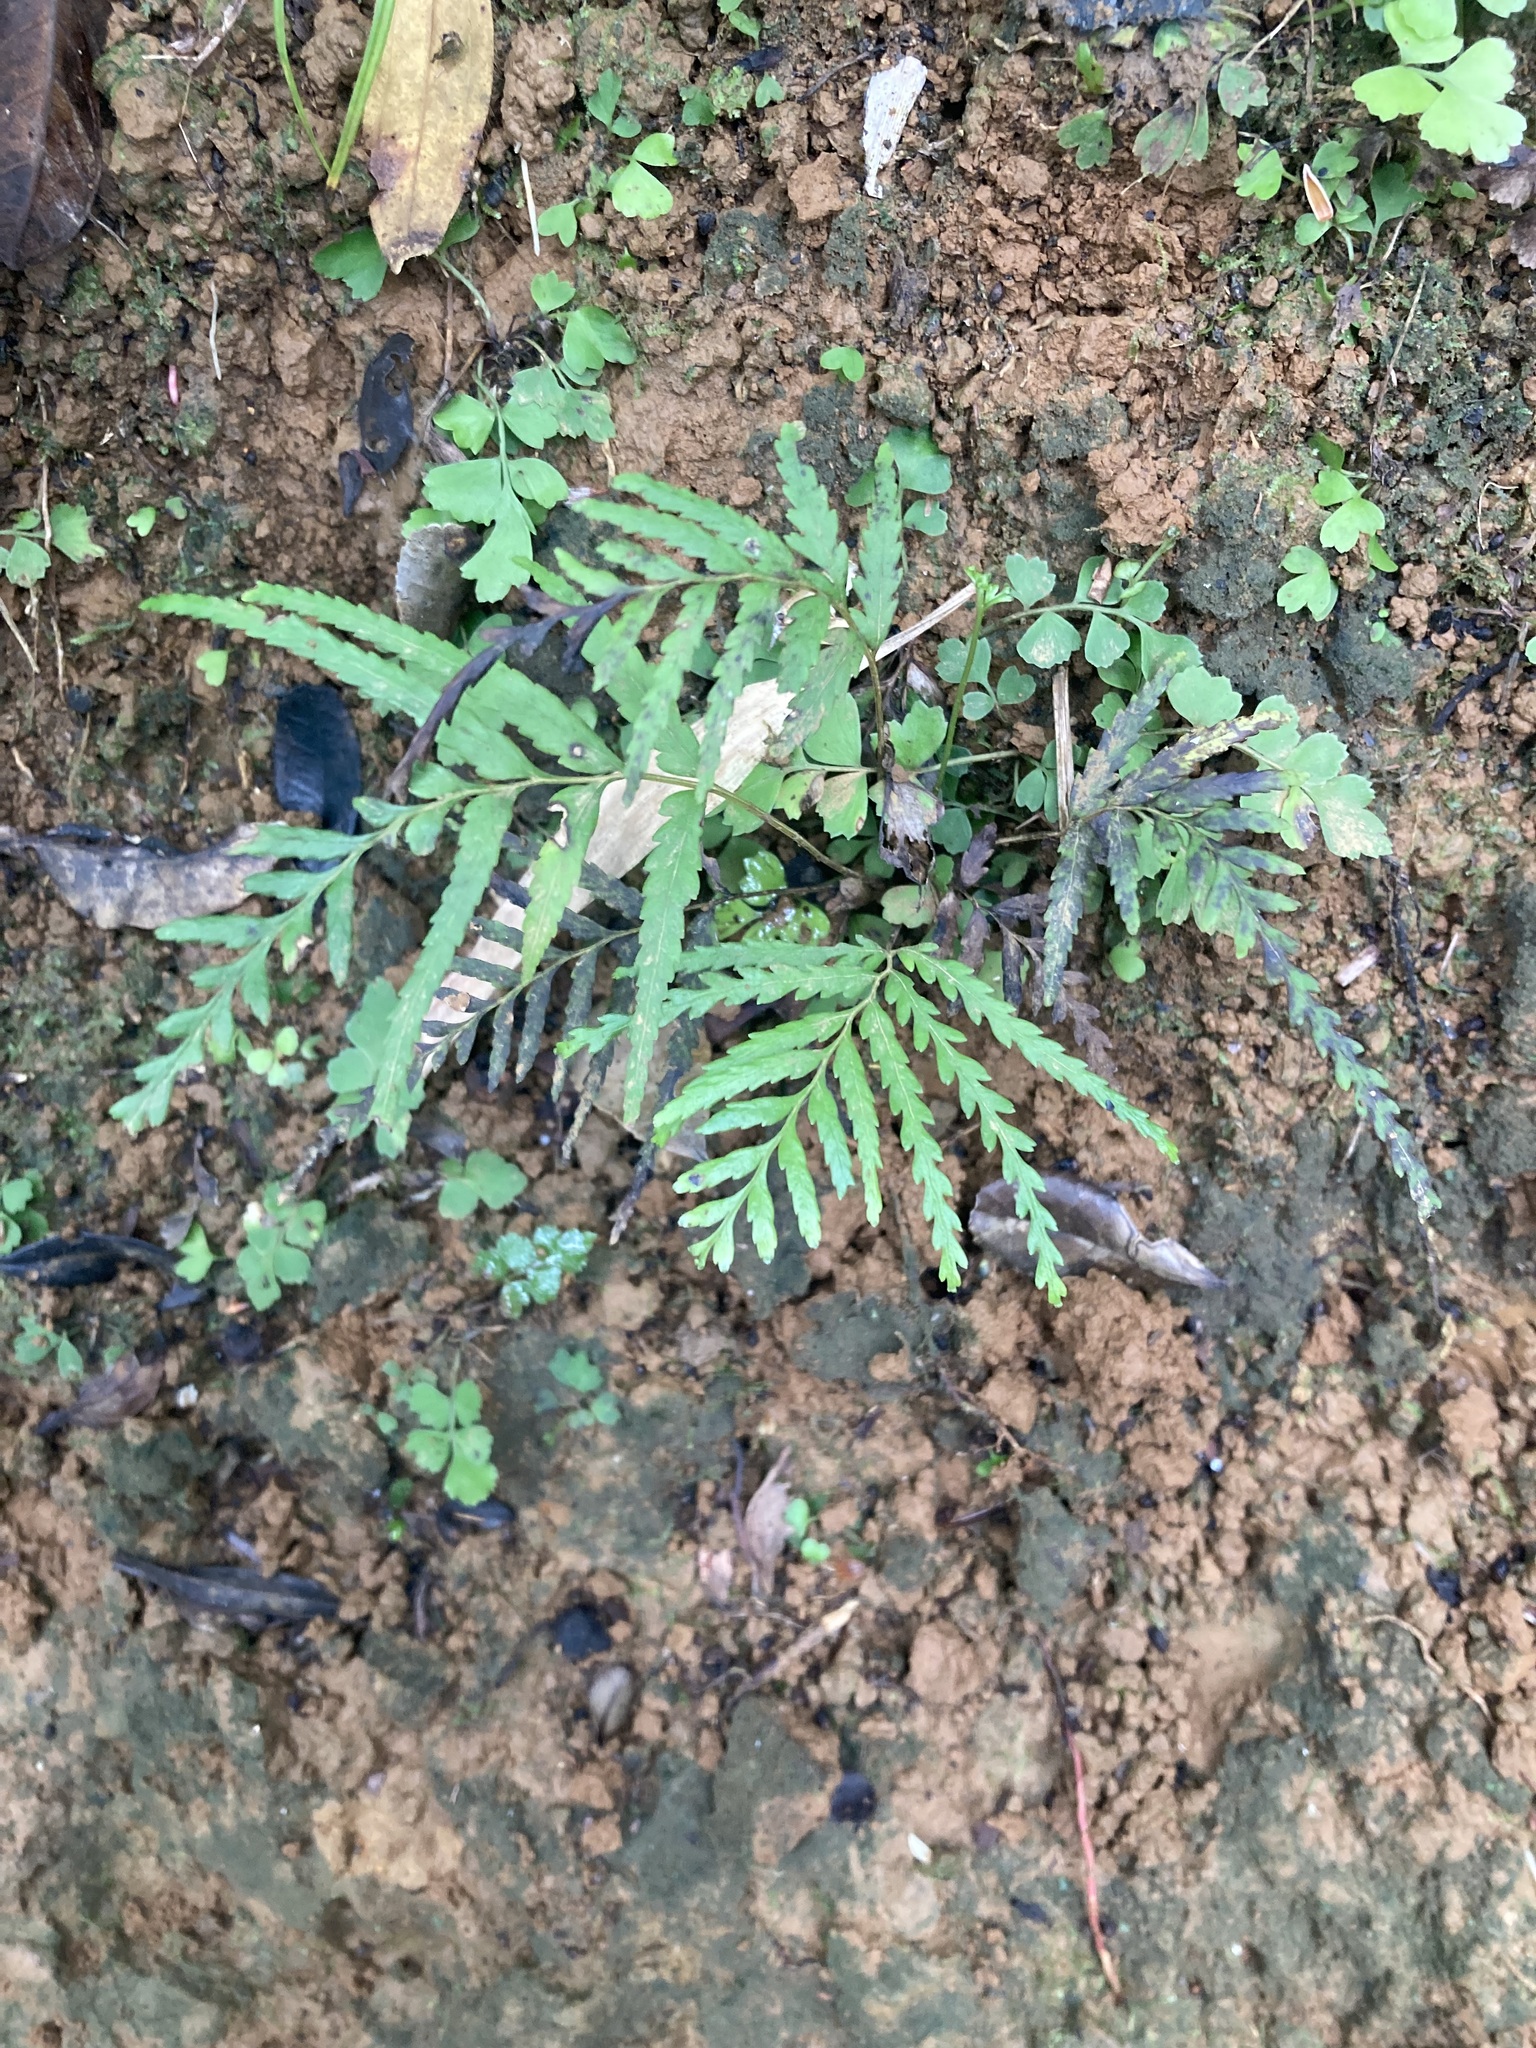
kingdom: Plantae
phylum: Tracheophyta
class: Polypodiopsida
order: Polypodiales
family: Lindsaeaceae
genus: Tapeinidium
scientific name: Tapeinidium biserratum
